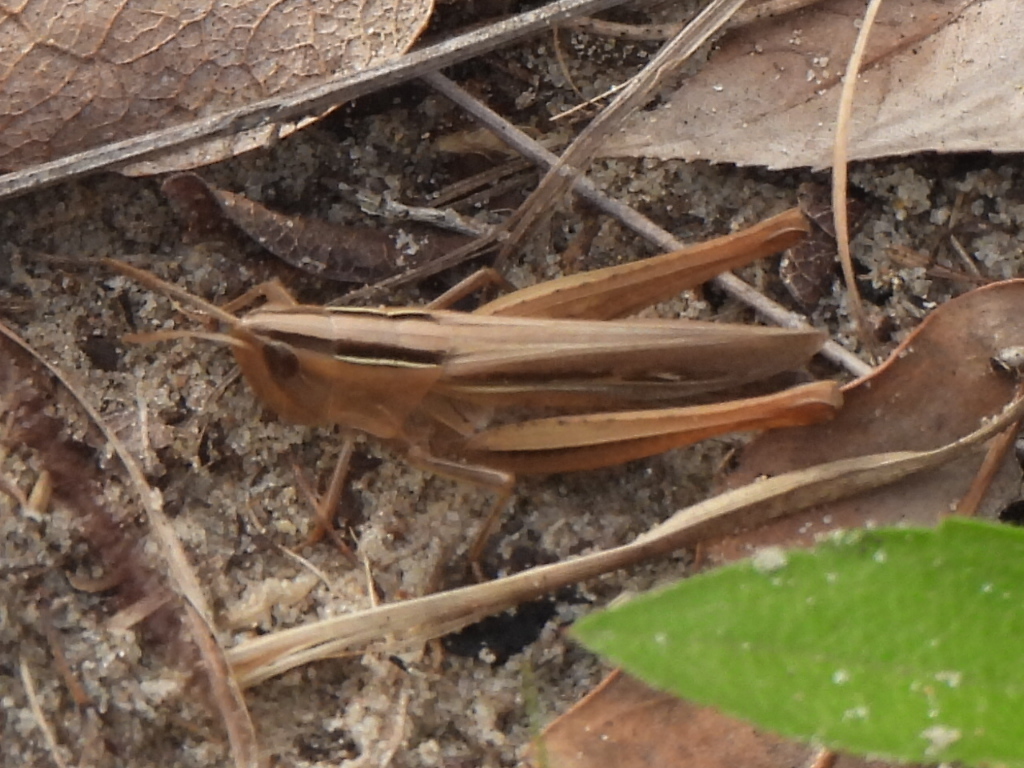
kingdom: Animalia
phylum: Arthropoda
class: Insecta
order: Orthoptera
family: Acrididae
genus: Eritettix
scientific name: Eritettix simplex
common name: Velvet-striped grasshopper
